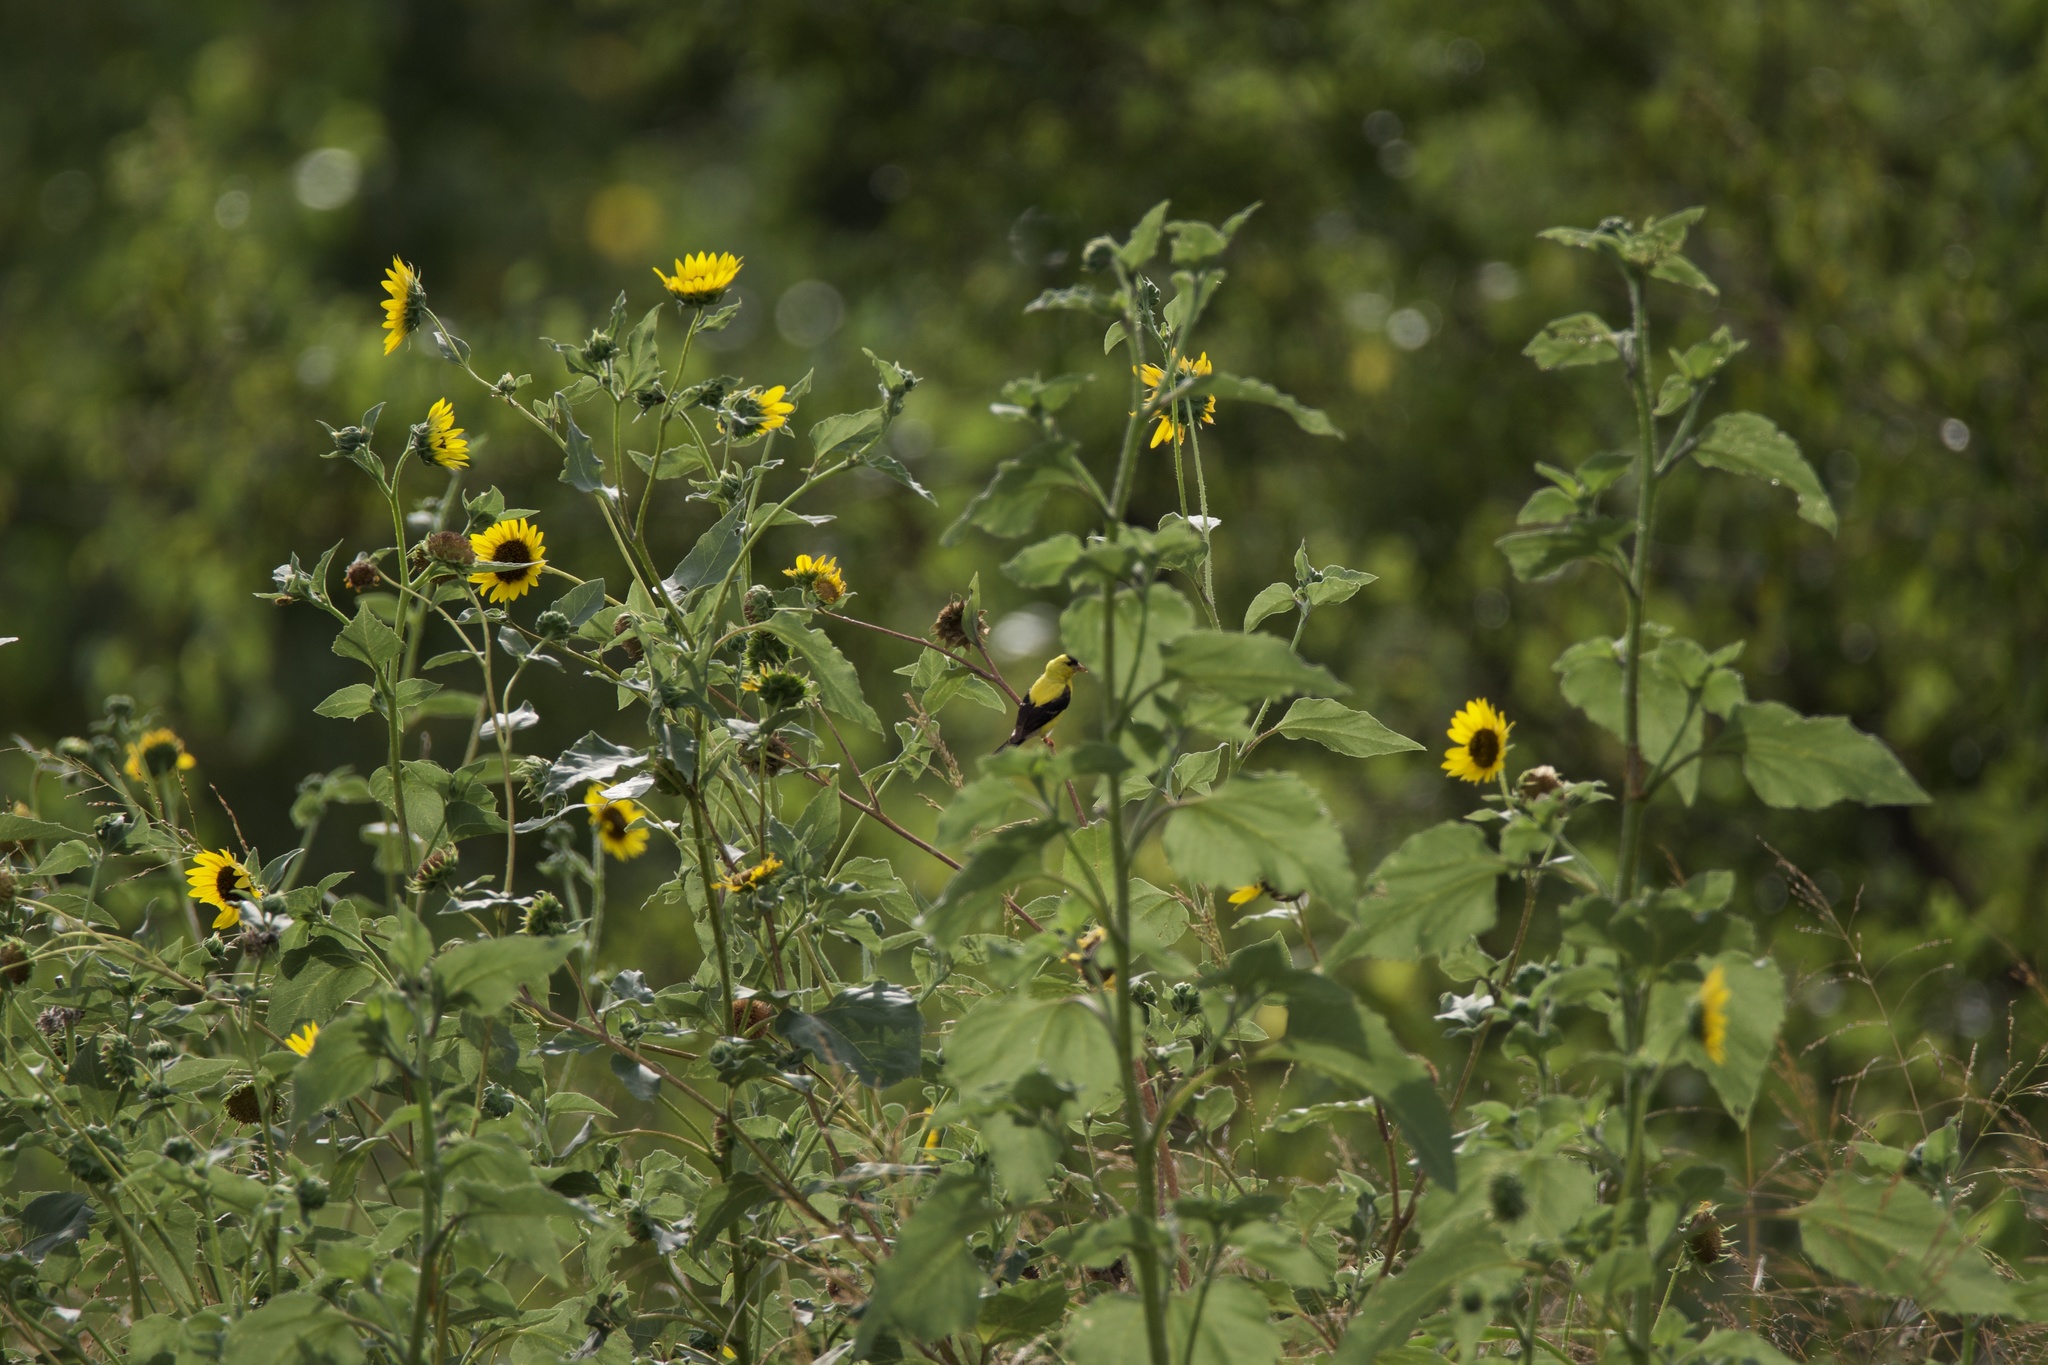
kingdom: Animalia
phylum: Chordata
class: Aves
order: Passeriformes
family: Fringillidae
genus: Spinus
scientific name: Spinus tristis
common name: American goldfinch
